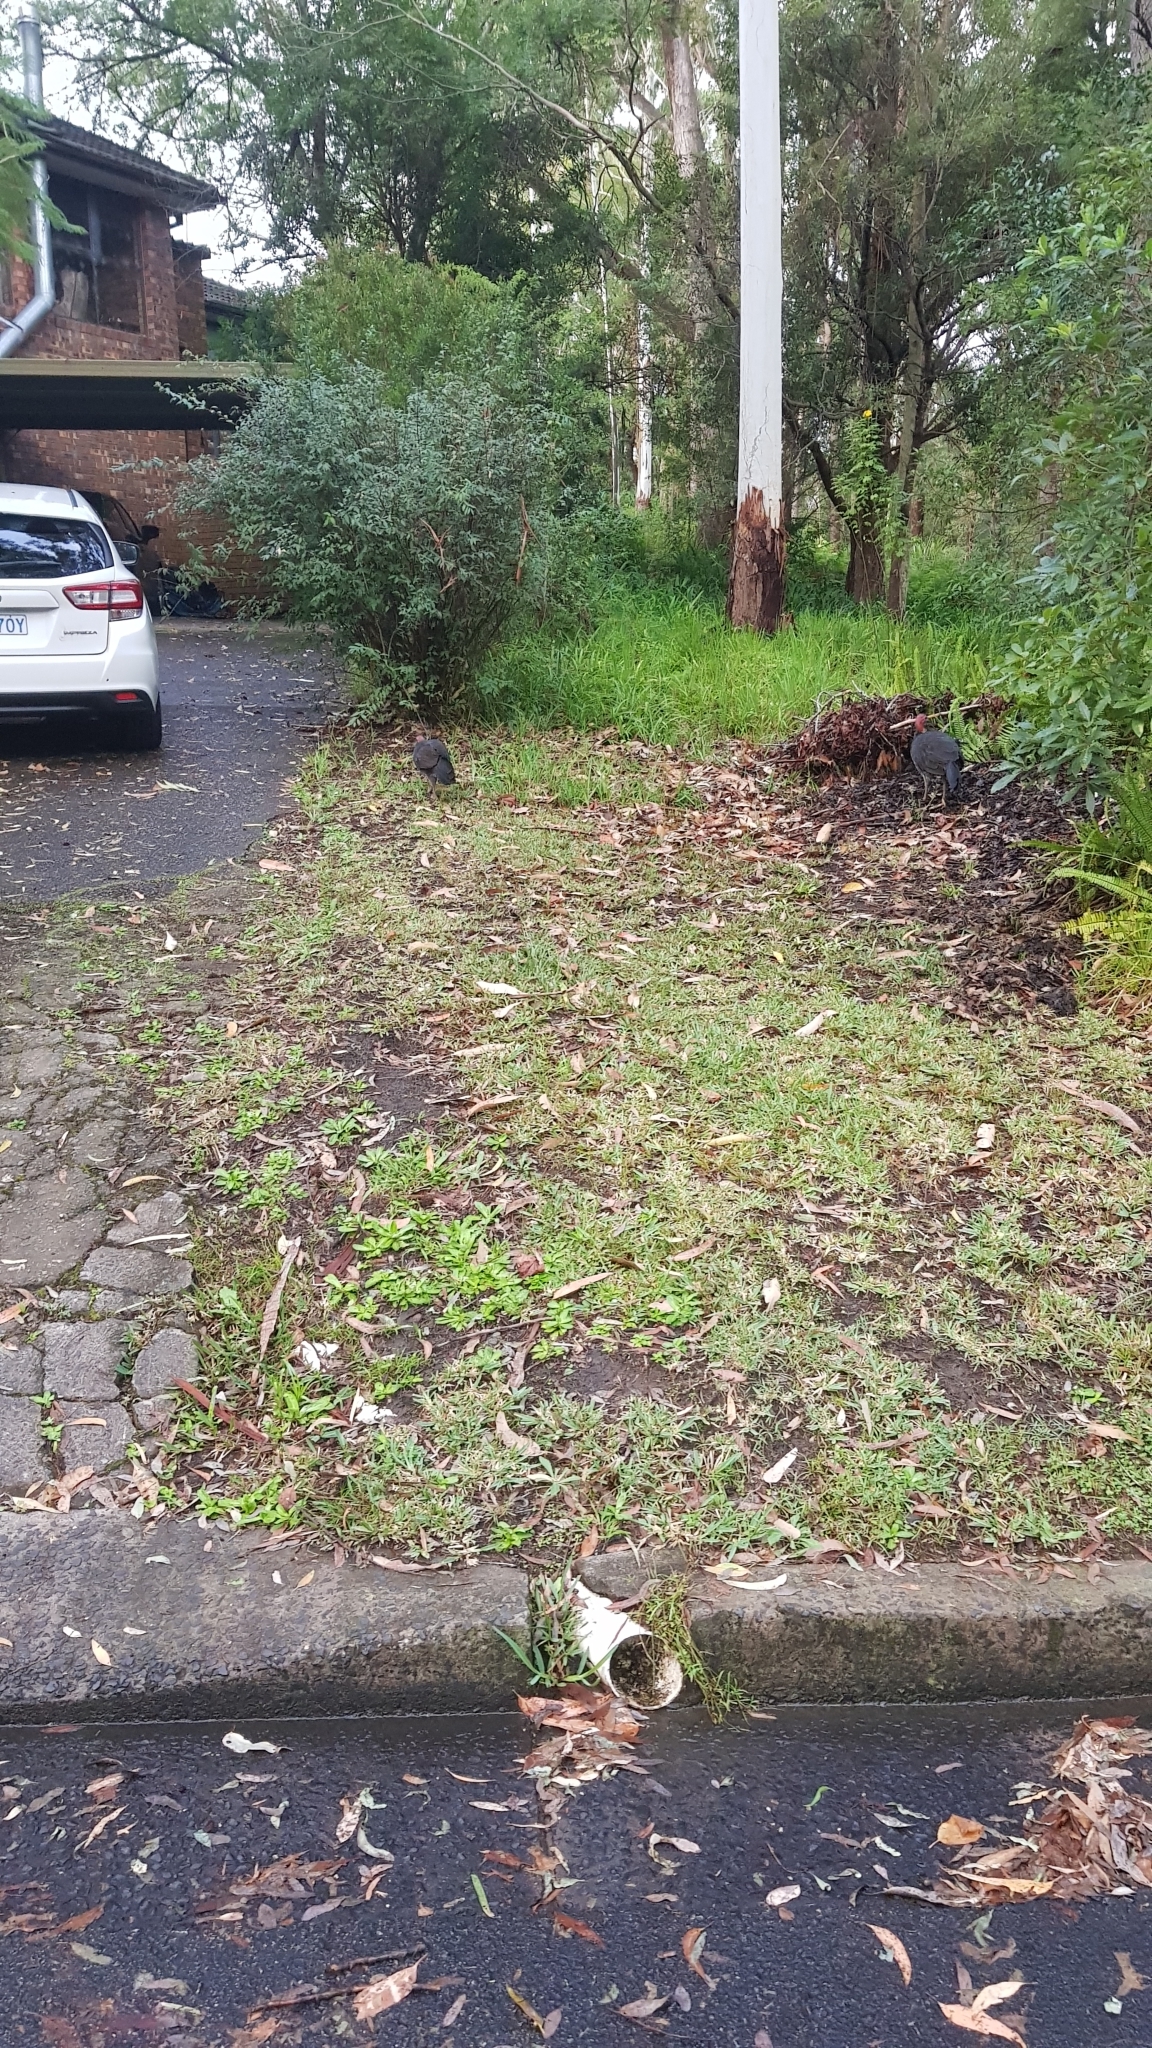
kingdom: Animalia
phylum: Chordata
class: Aves
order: Galliformes
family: Megapodiidae
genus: Alectura
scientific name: Alectura lathami
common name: Australian brushturkey
